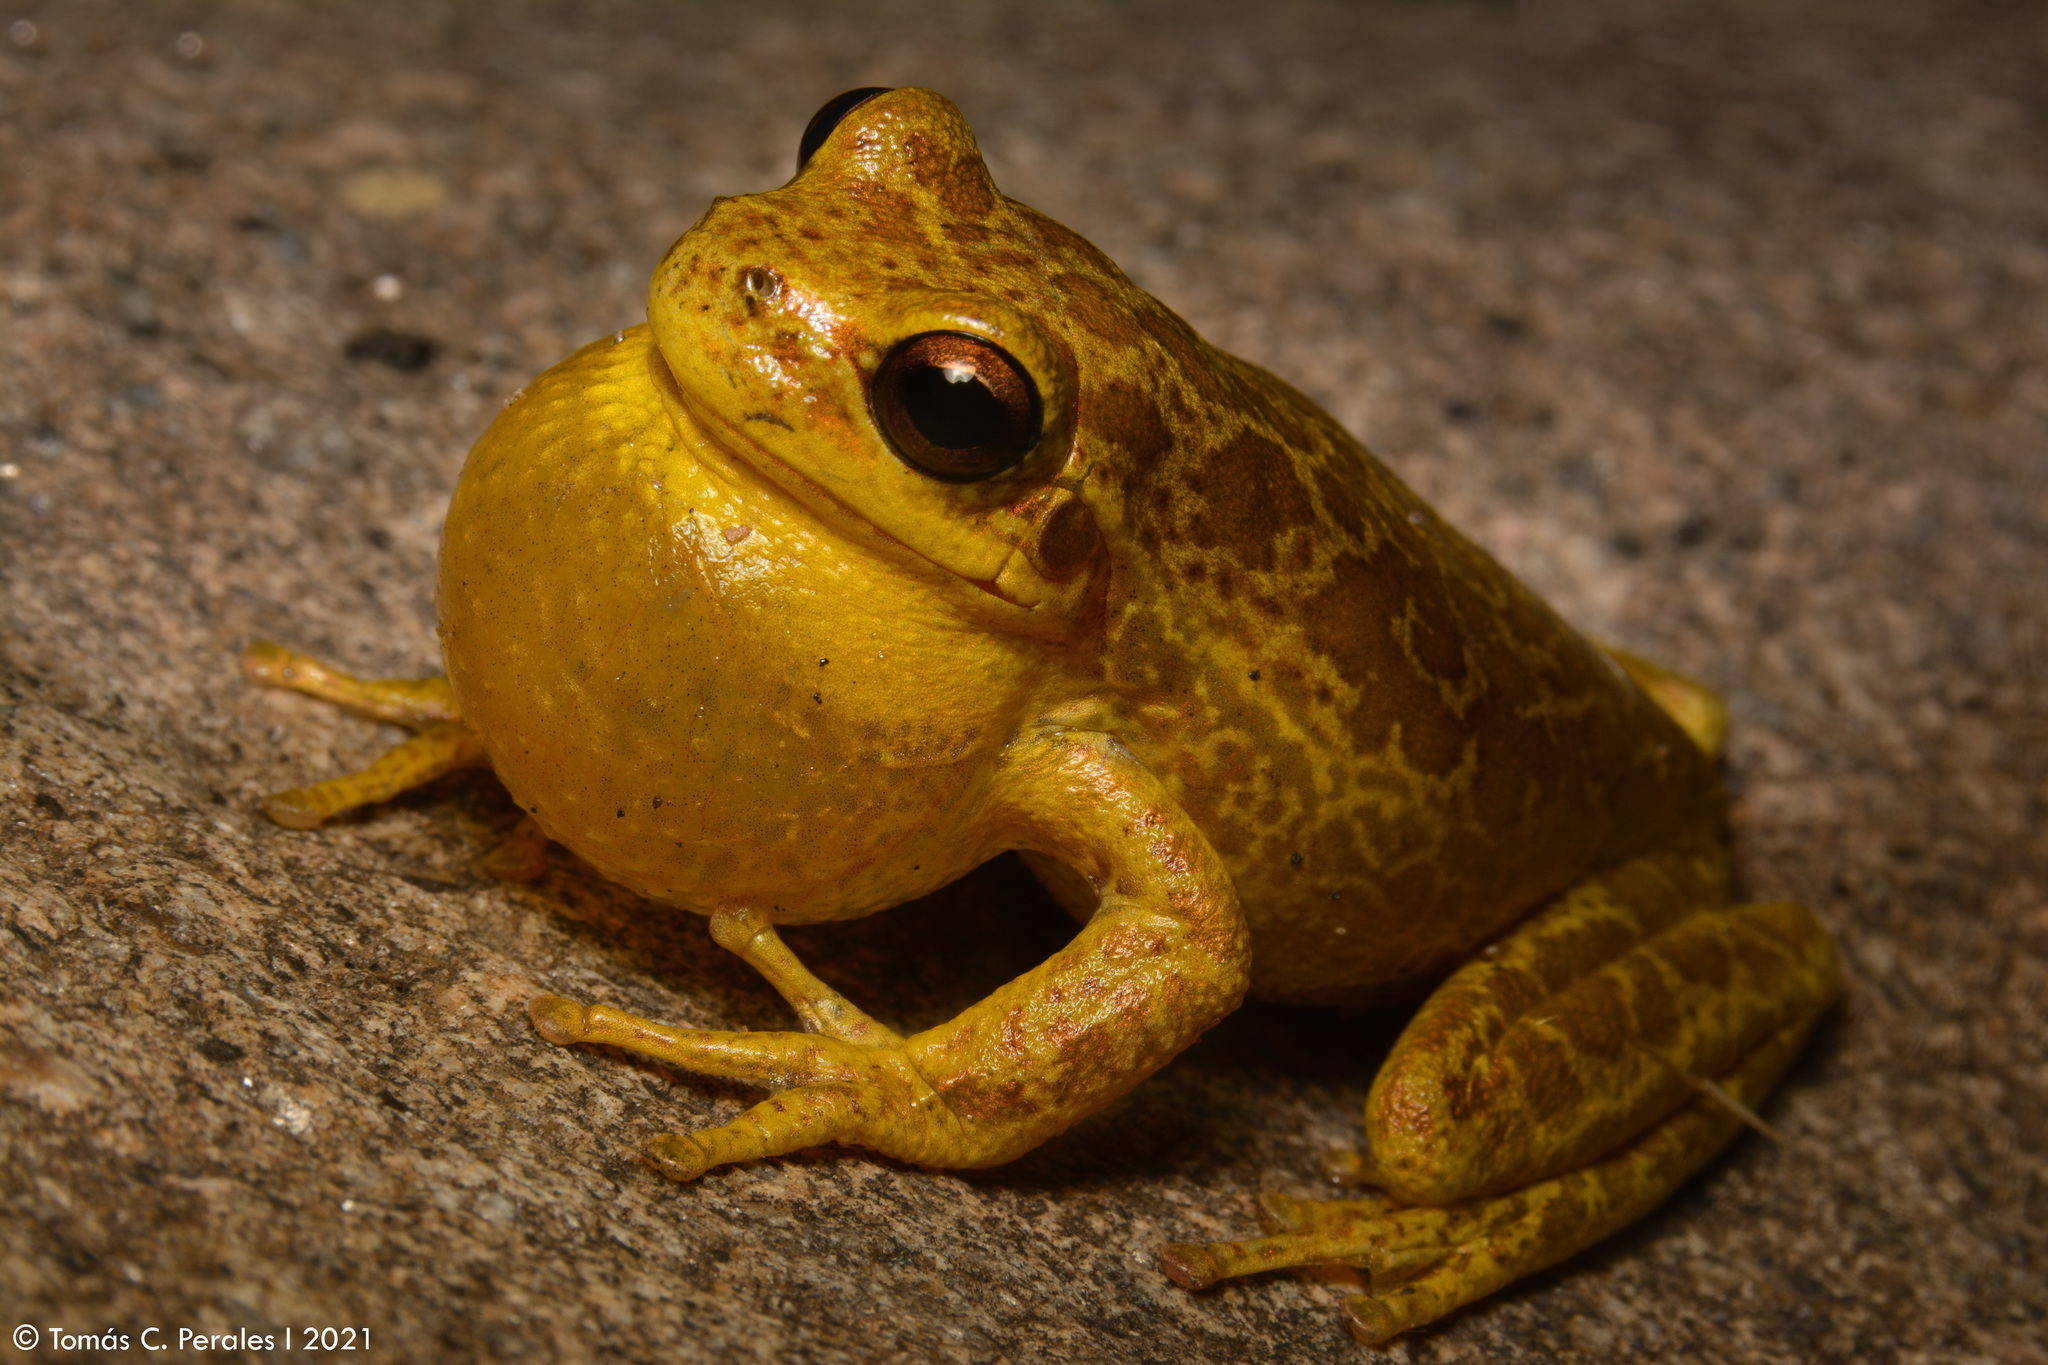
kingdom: Animalia
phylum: Chordata
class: Amphibia
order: Anura
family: Hylidae
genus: Boana
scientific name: Boana cordobae
